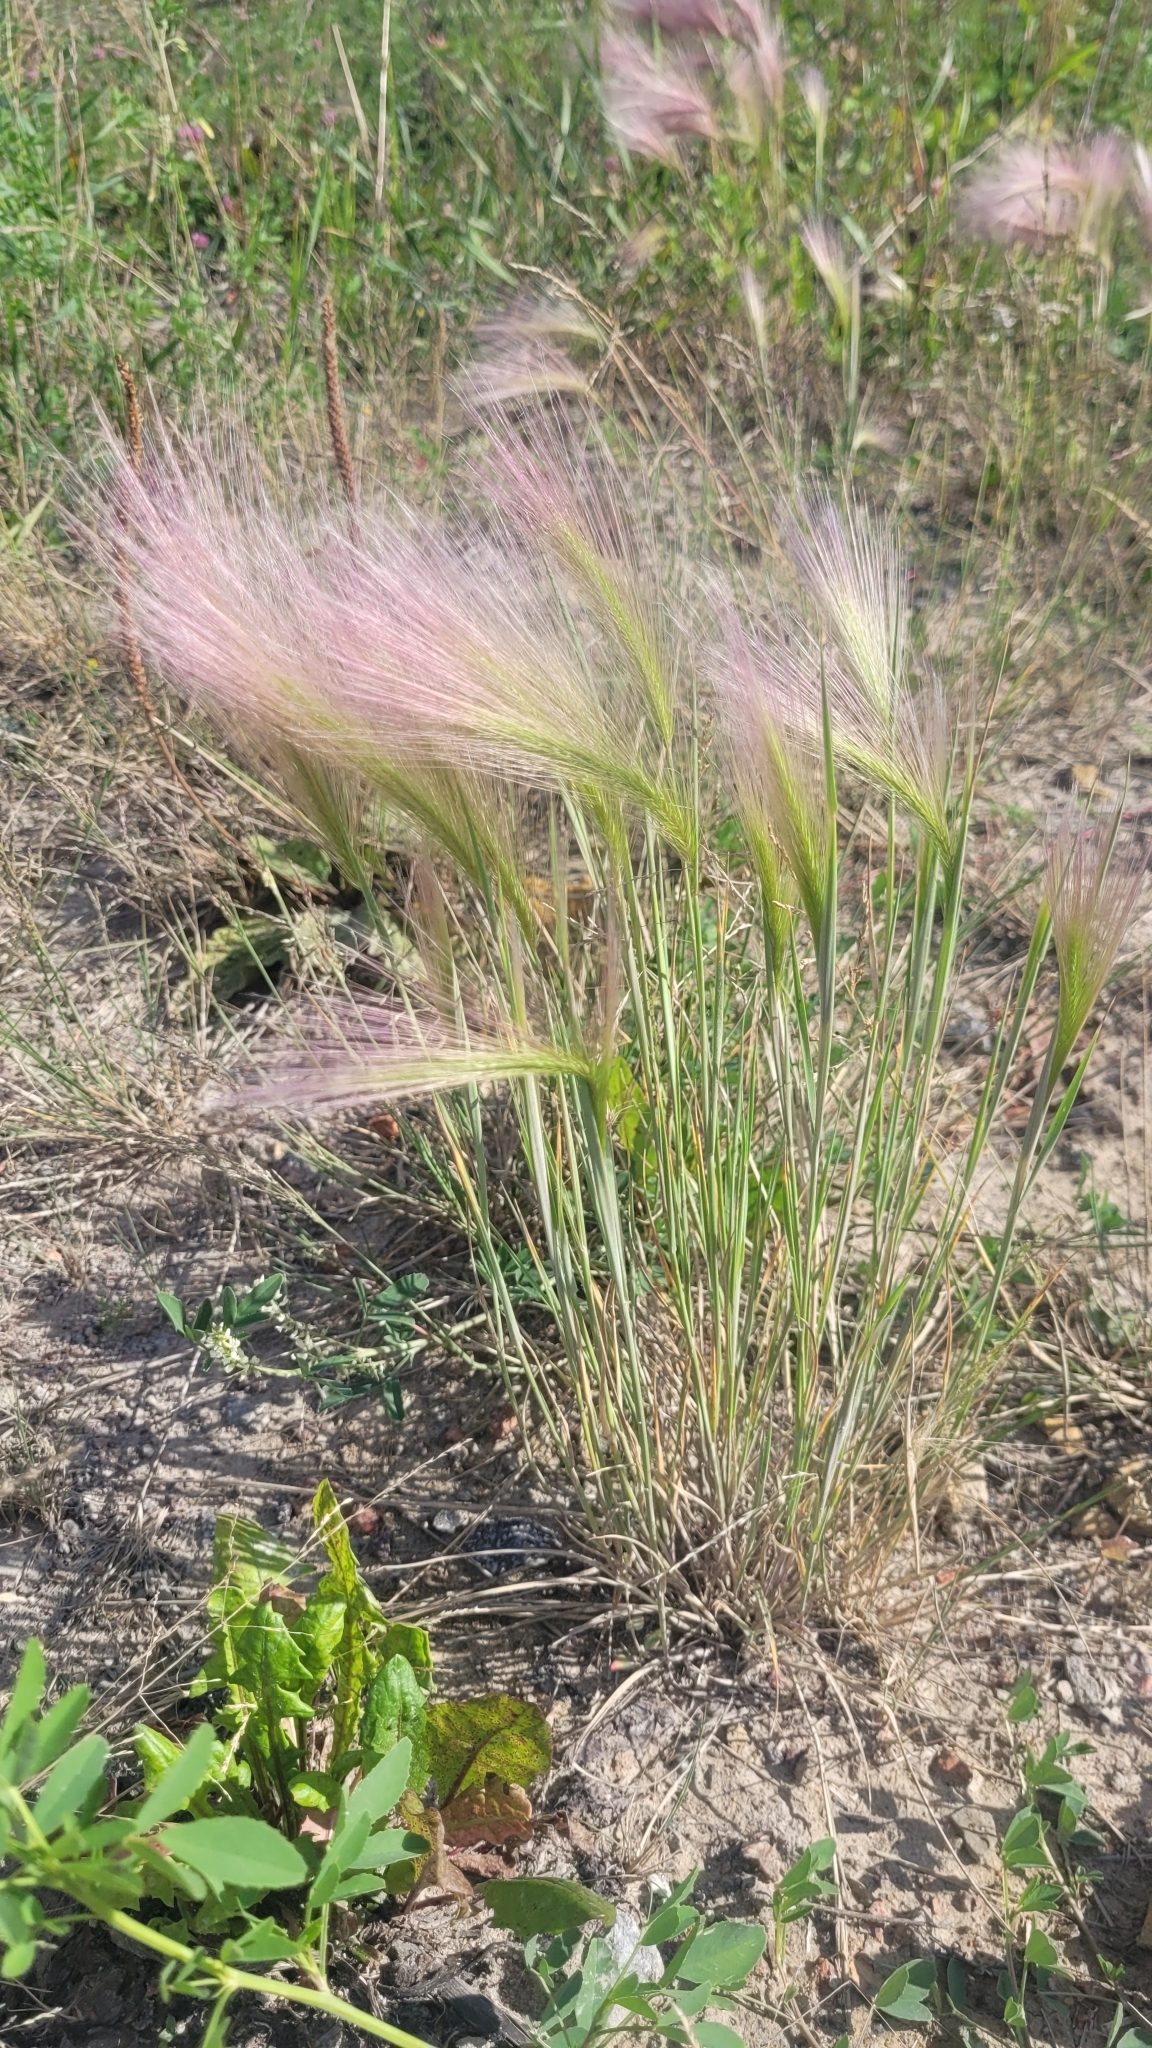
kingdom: Plantae
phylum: Tracheophyta
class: Liliopsida
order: Poales
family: Poaceae
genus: Hordeum
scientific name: Hordeum jubatum
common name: Foxtail barley
